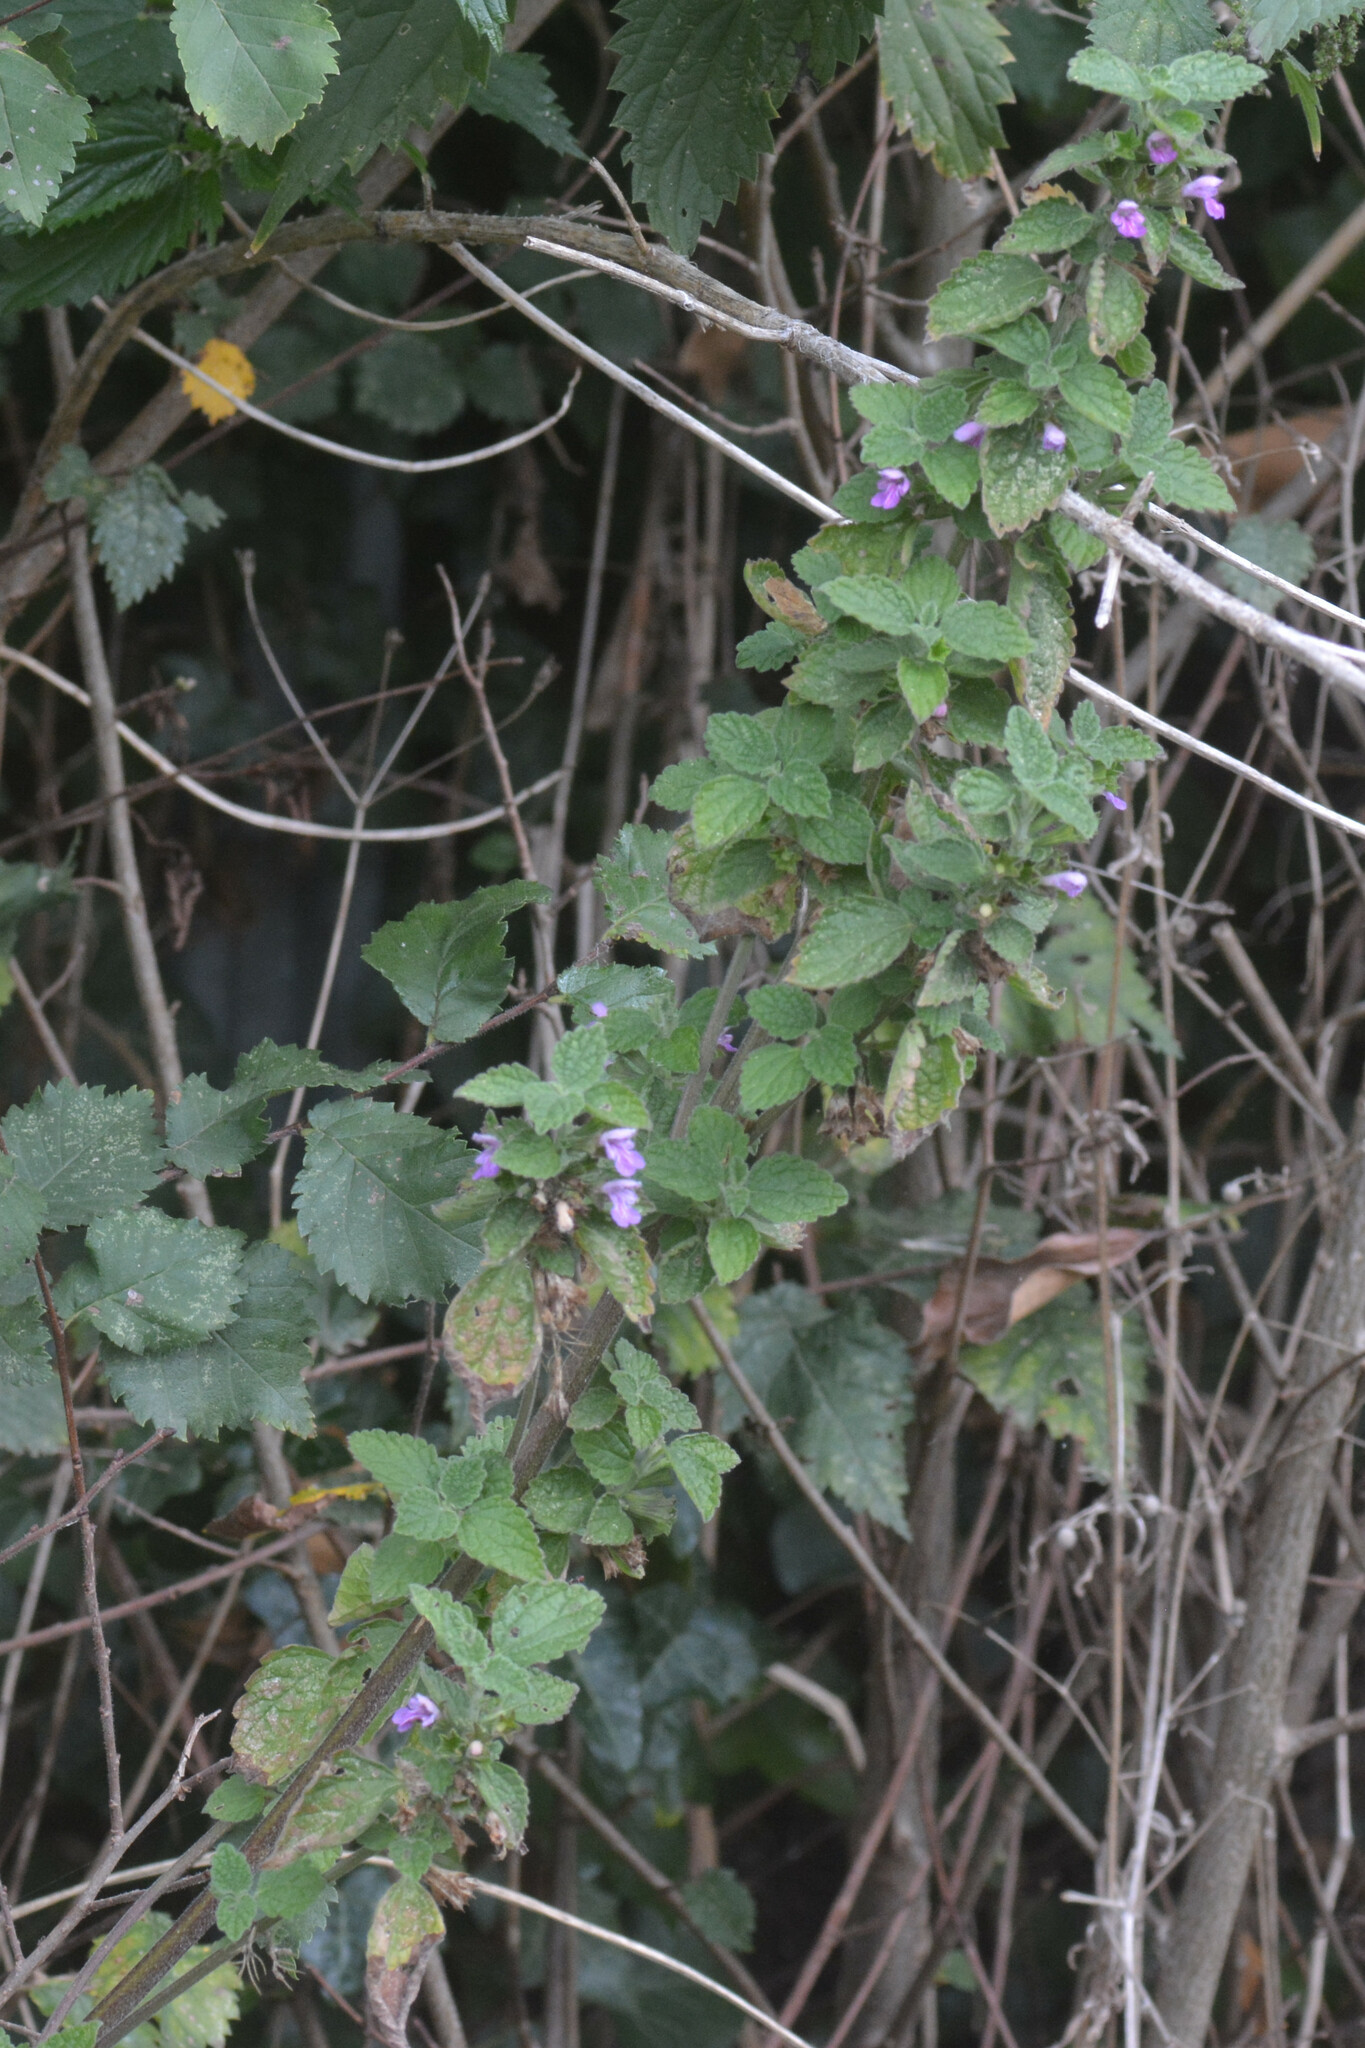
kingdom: Plantae
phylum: Tracheophyta
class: Magnoliopsida
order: Lamiales
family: Lamiaceae
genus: Ballota
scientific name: Ballota nigra
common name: Black horehound
